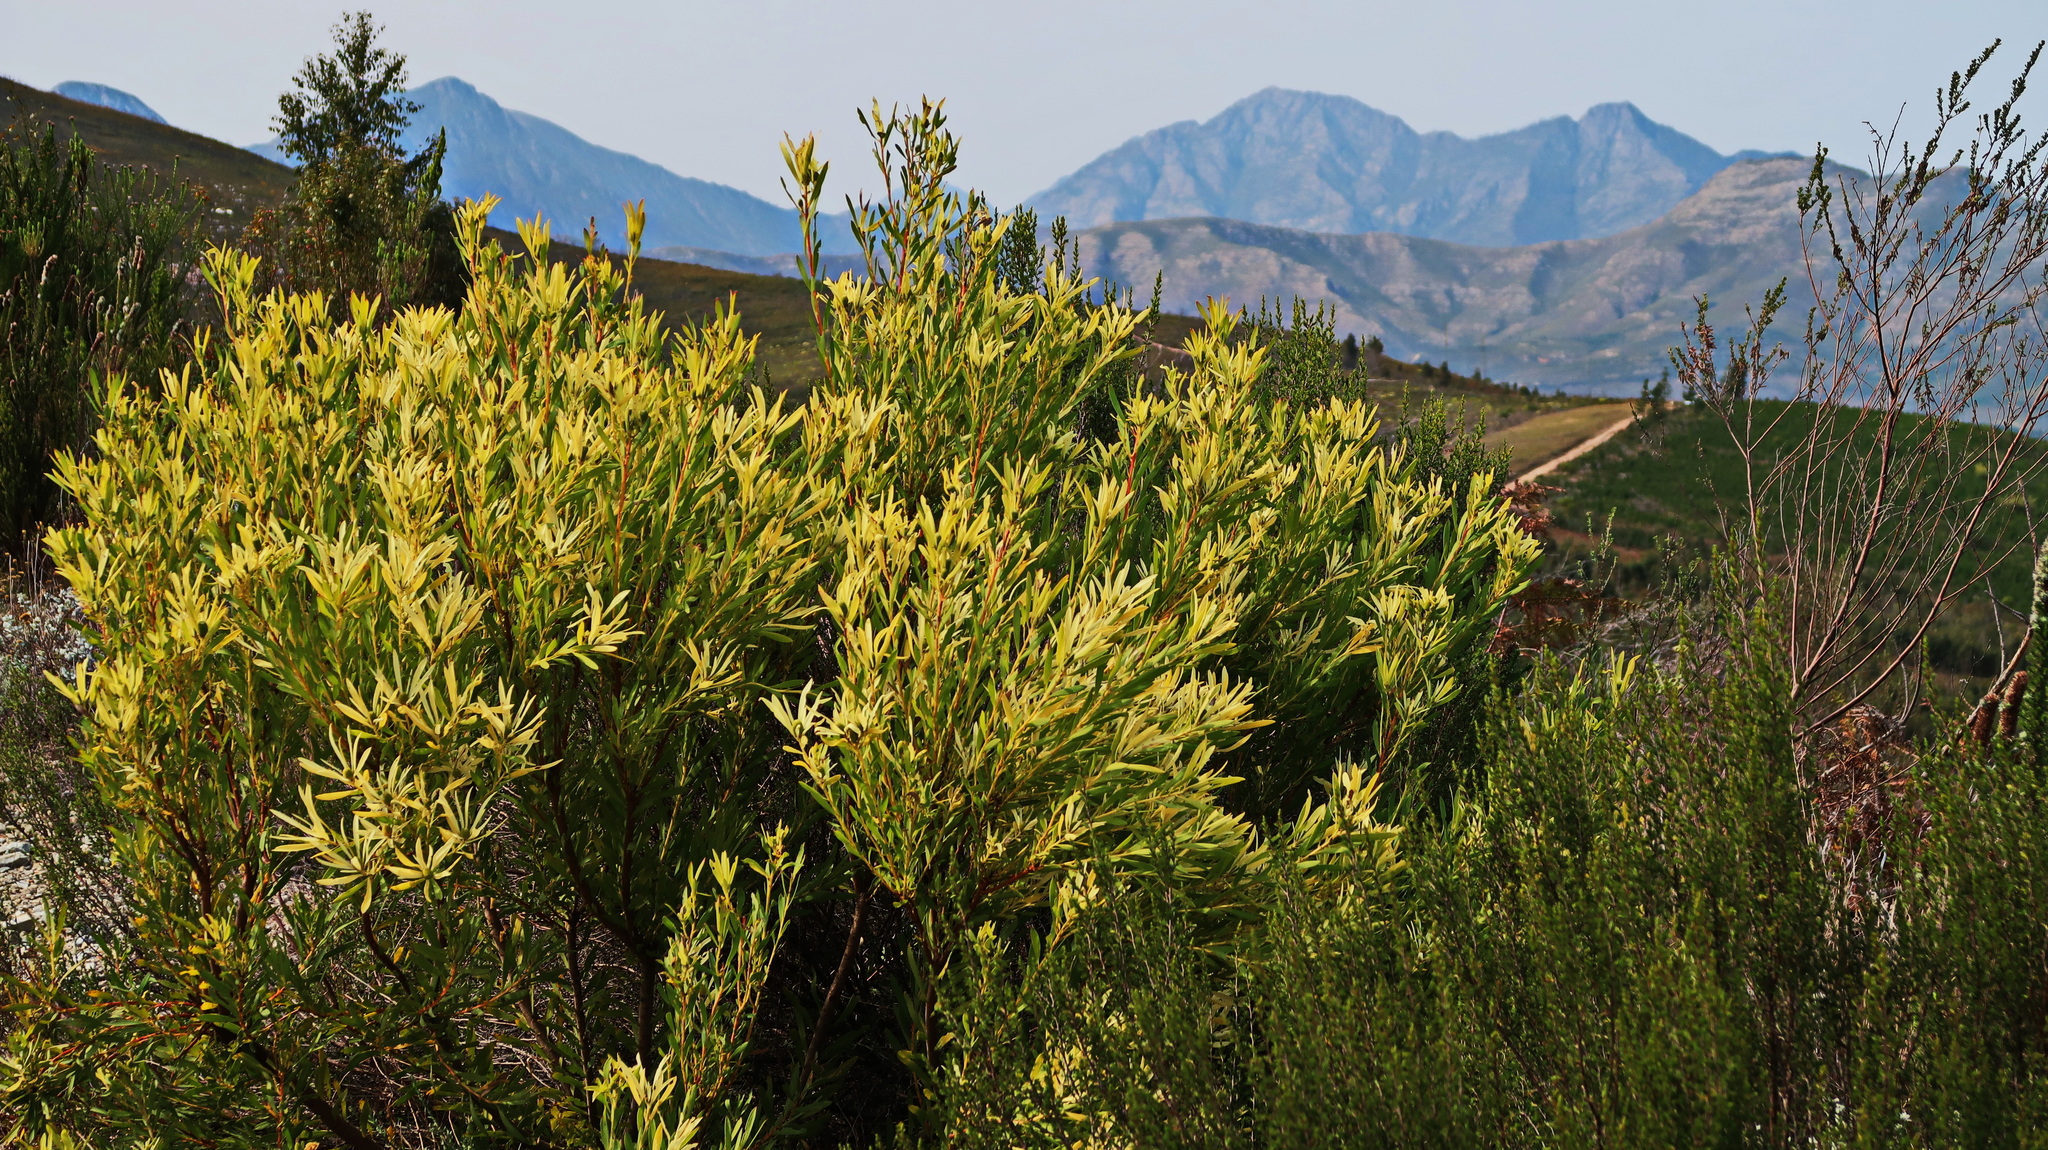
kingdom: Plantae
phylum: Tracheophyta
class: Magnoliopsida
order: Proteales
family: Proteaceae
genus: Leucadendron
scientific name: Leucadendron salignum
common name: Common sunshine conebush
